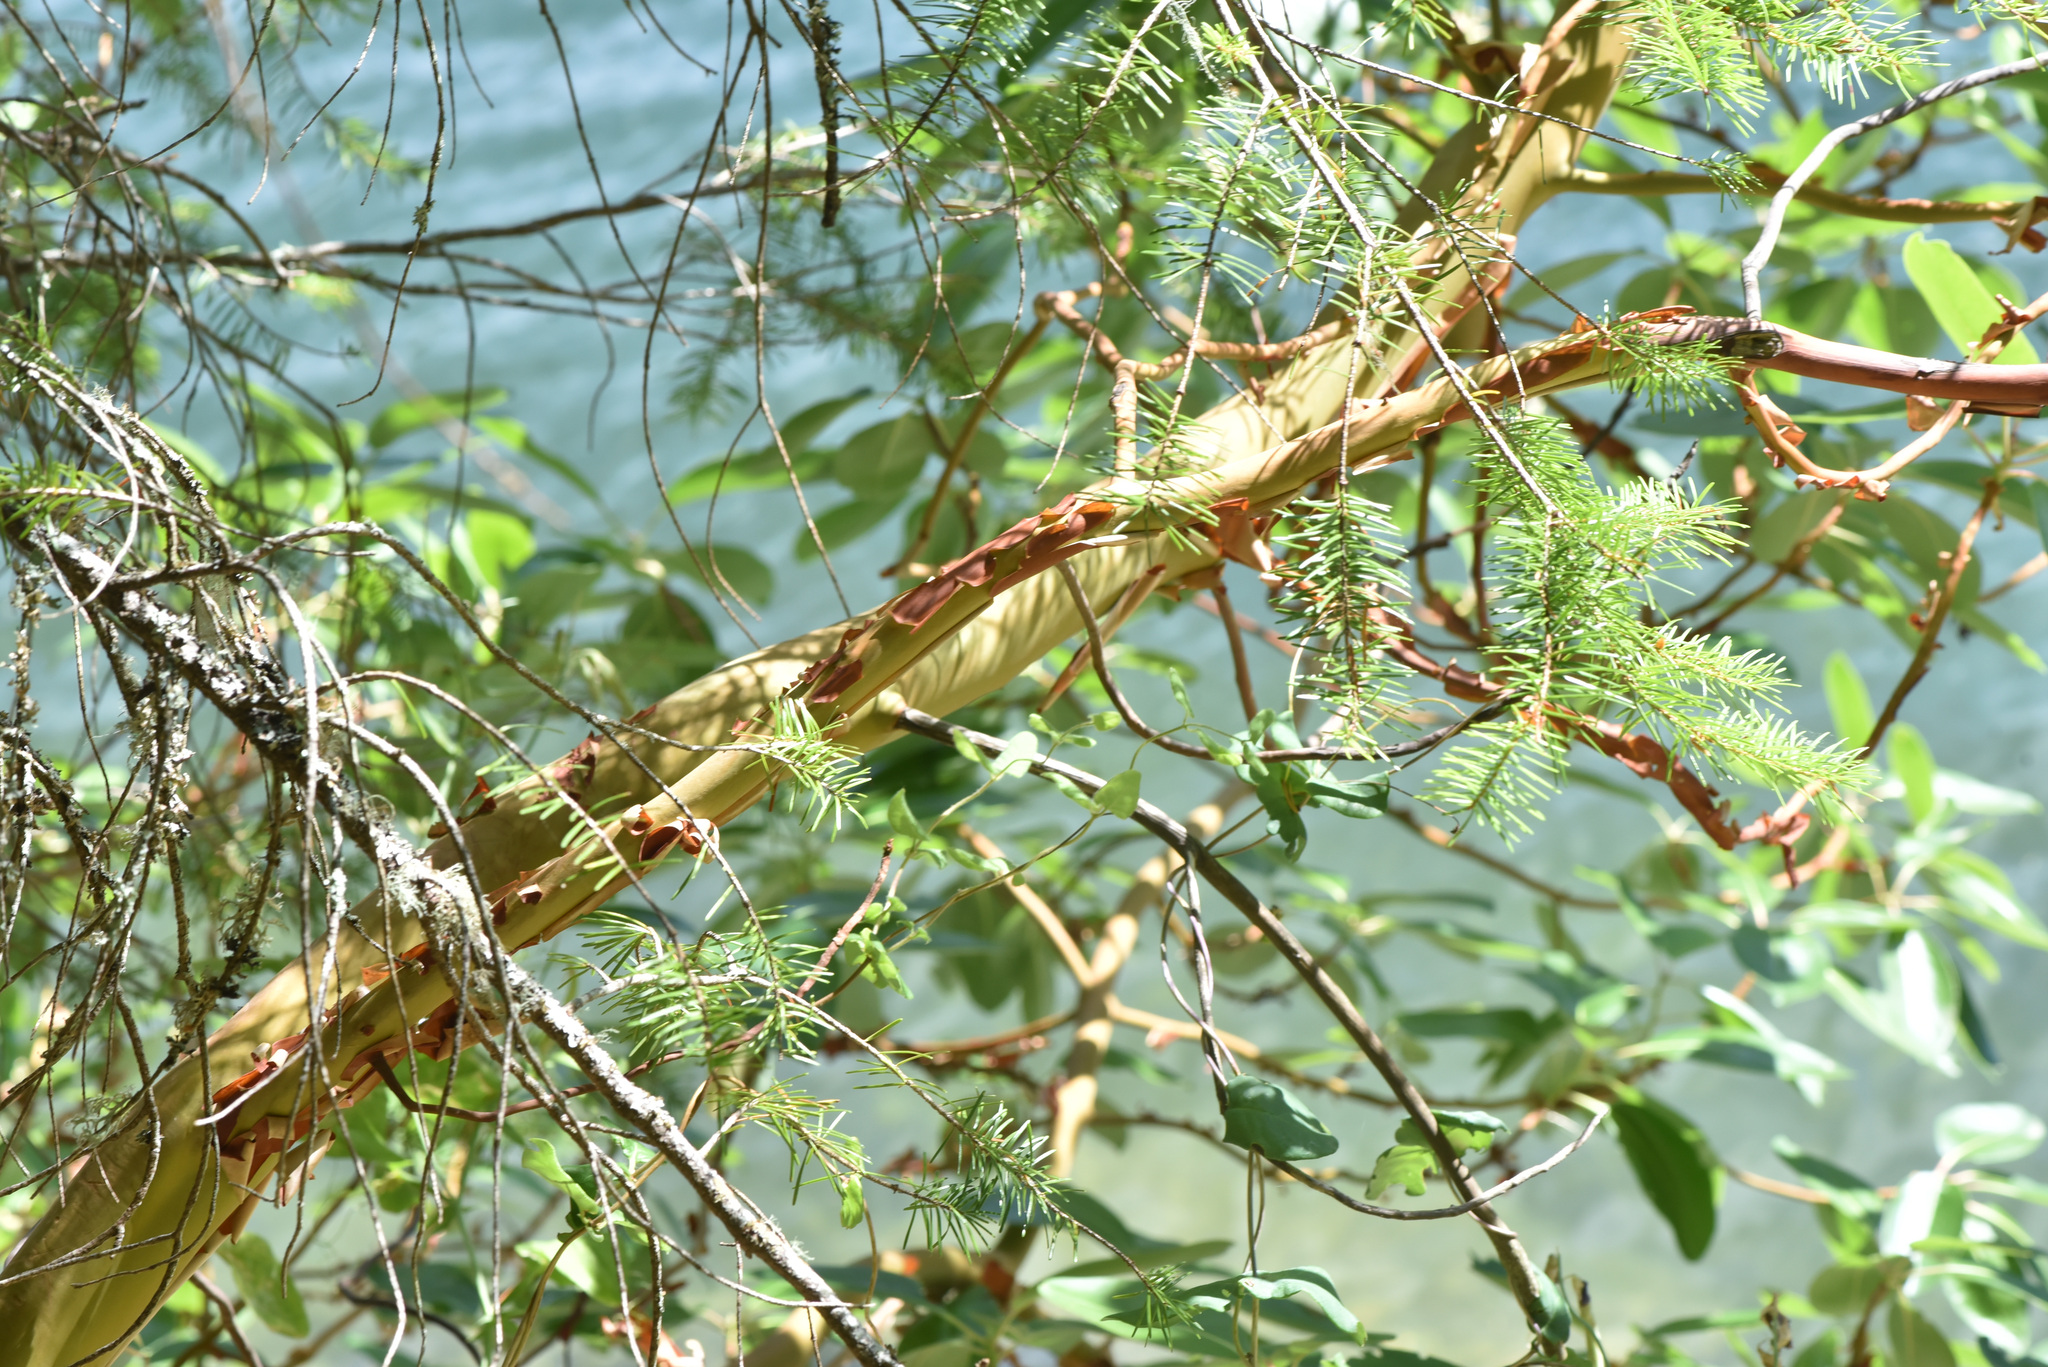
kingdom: Plantae
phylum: Tracheophyta
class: Magnoliopsida
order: Ericales
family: Ericaceae
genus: Arbutus
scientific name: Arbutus menziesii
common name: Pacific madrone
